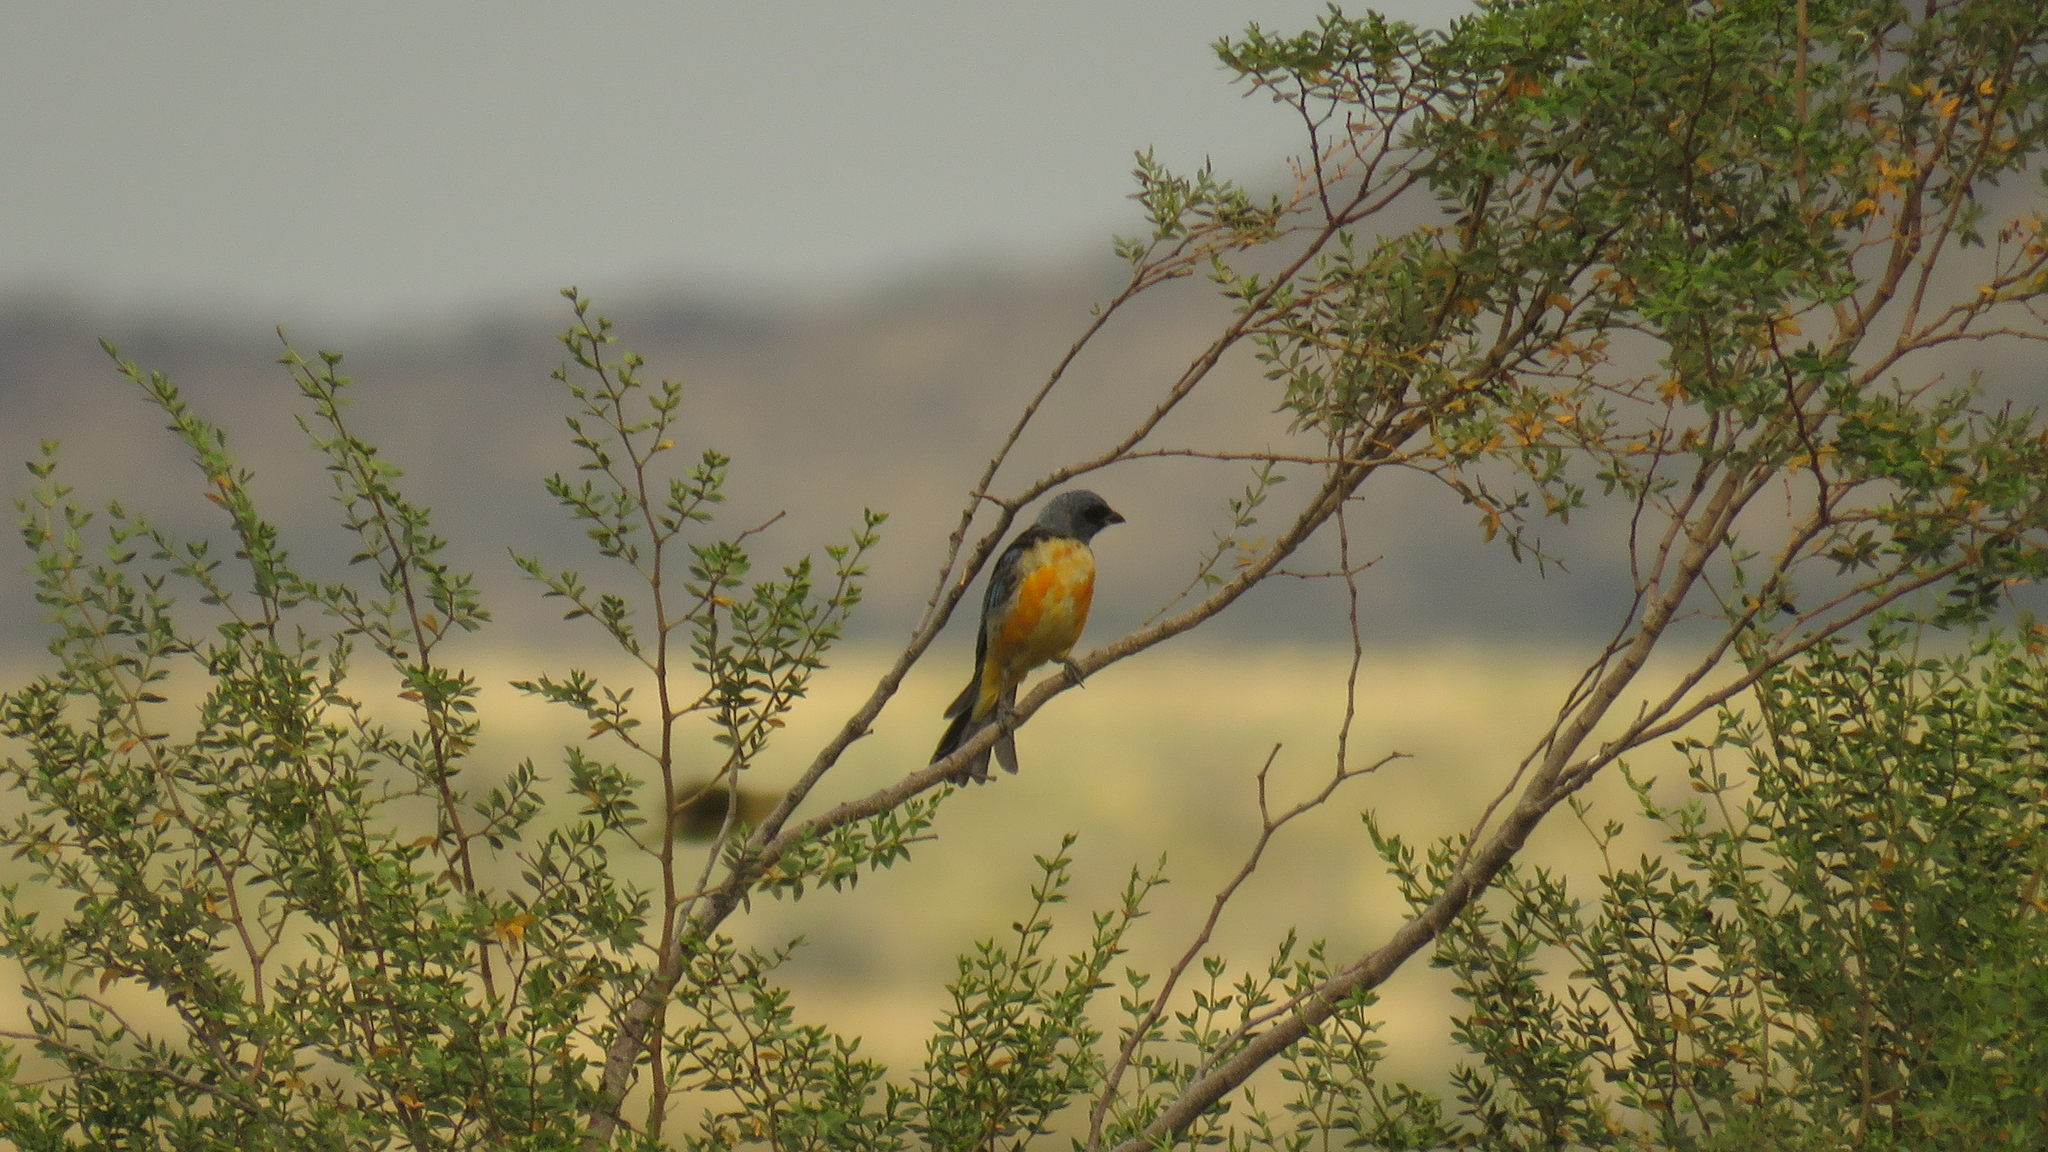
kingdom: Animalia
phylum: Chordata
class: Aves
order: Passeriformes
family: Thraupidae
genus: Rauenia
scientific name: Rauenia bonariensis
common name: Blue-and-yellow tanager
